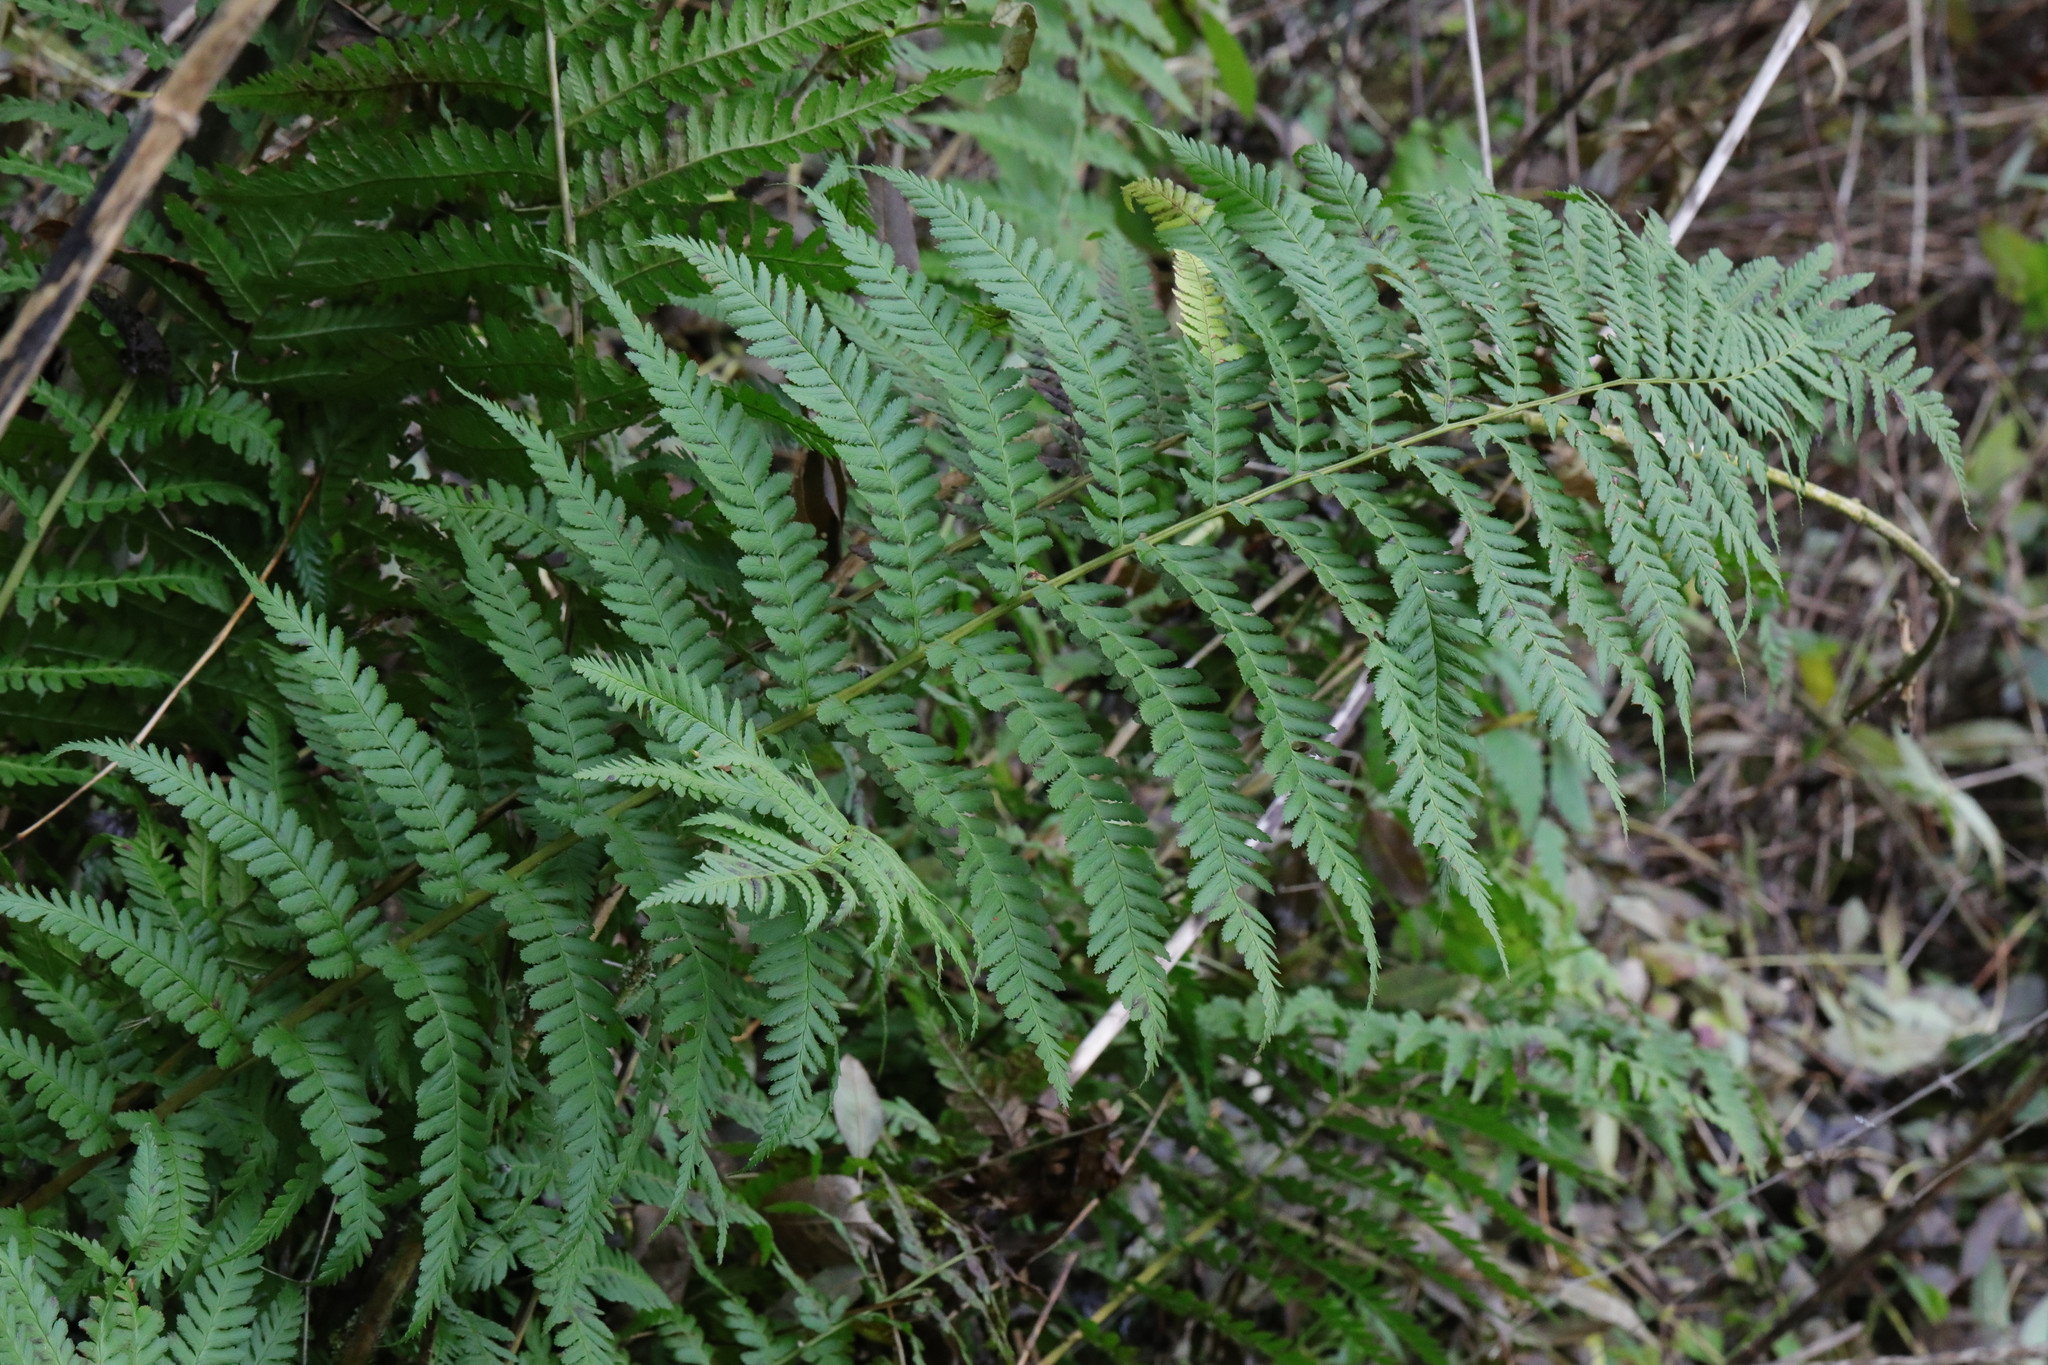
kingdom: Plantae
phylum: Tracheophyta
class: Polypodiopsida
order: Polypodiales
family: Dryopteridaceae
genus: Dryopteris
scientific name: Dryopteris filix-mas
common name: Male fern
